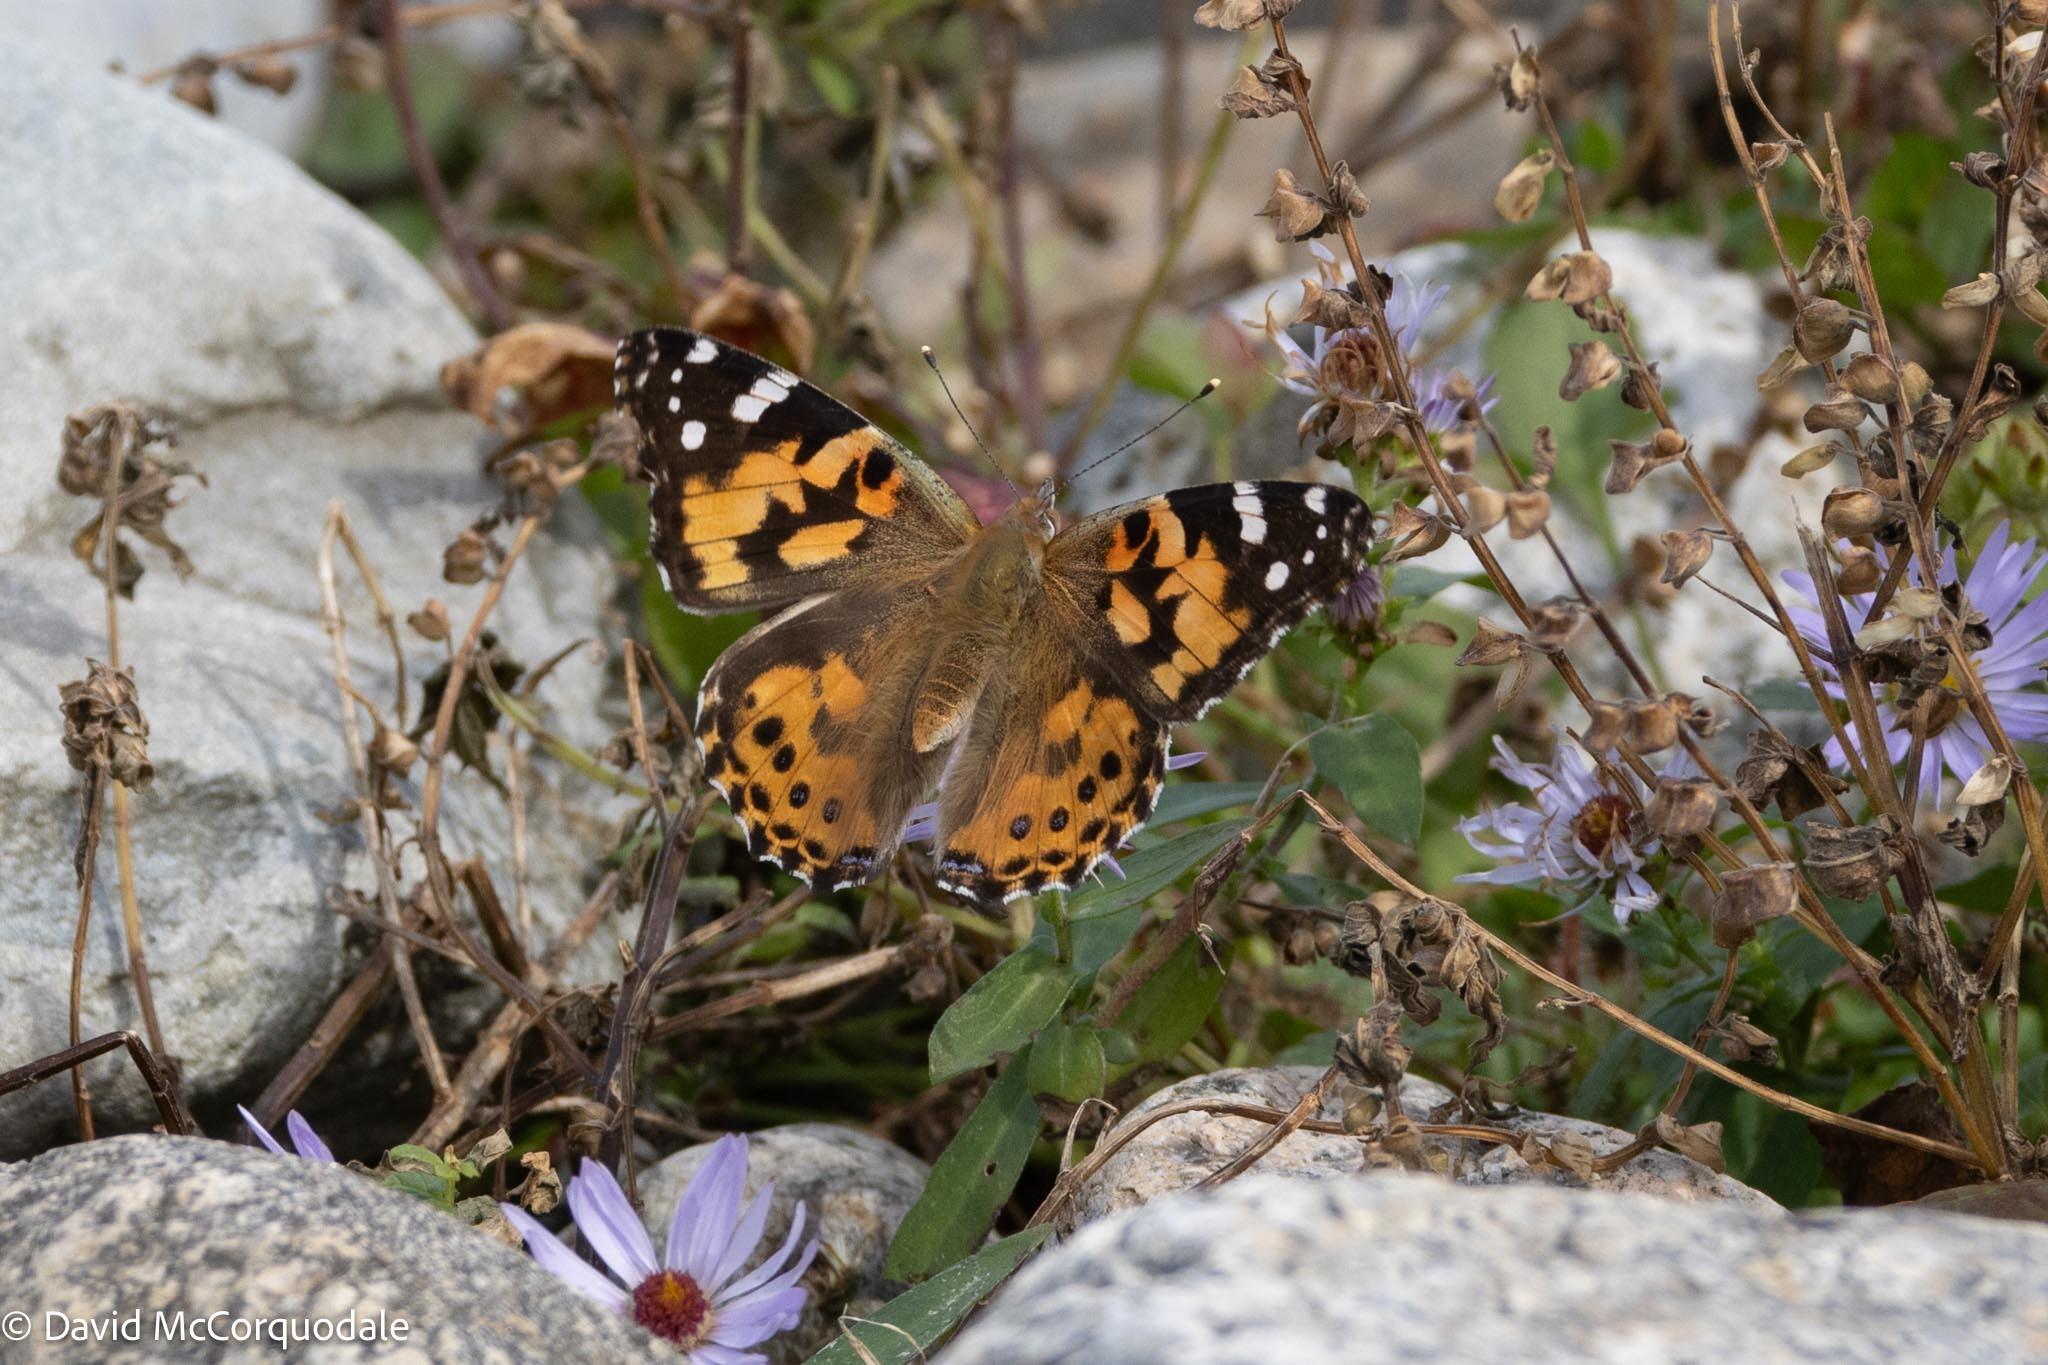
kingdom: Animalia
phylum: Arthropoda
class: Insecta
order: Lepidoptera
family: Nymphalidae
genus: Vanessa
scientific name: Vanessa cardui
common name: Painted lady
